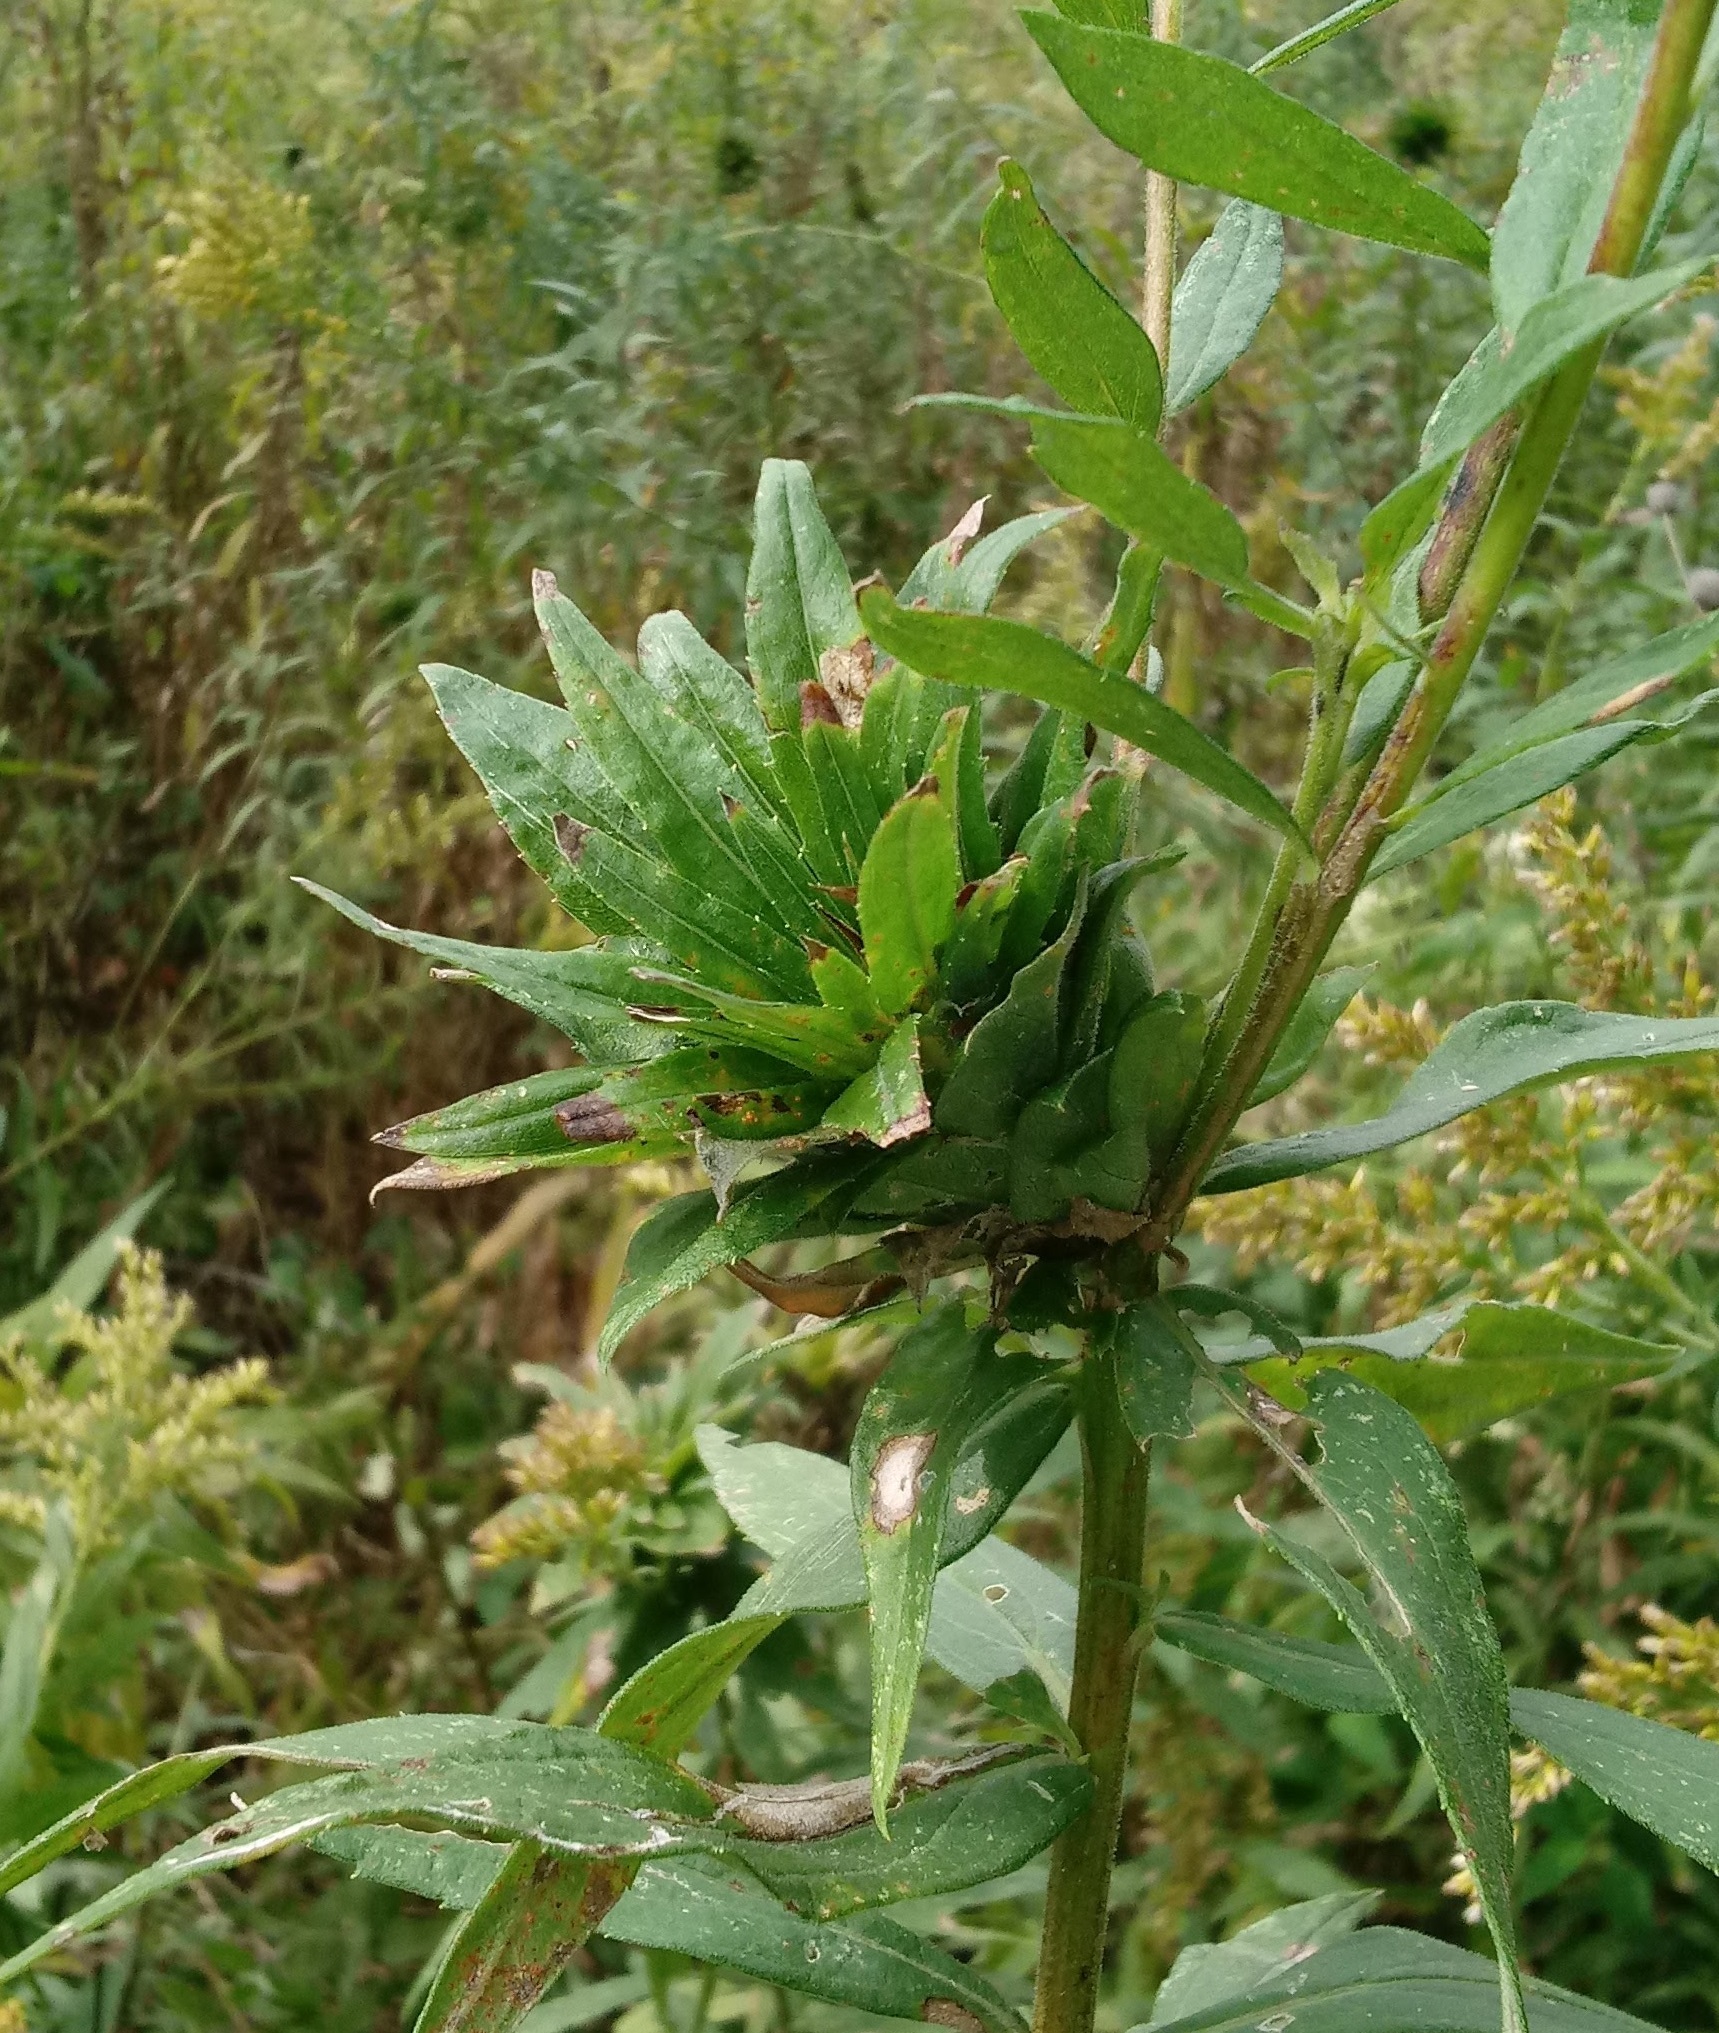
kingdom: Animalia
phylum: Arthropoda
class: Insecta
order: Diptera
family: Cecidomyiidae
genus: Rhopalomyia
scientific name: Rhopalomyia solidaginis
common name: Goldenrod bunch gall midge
